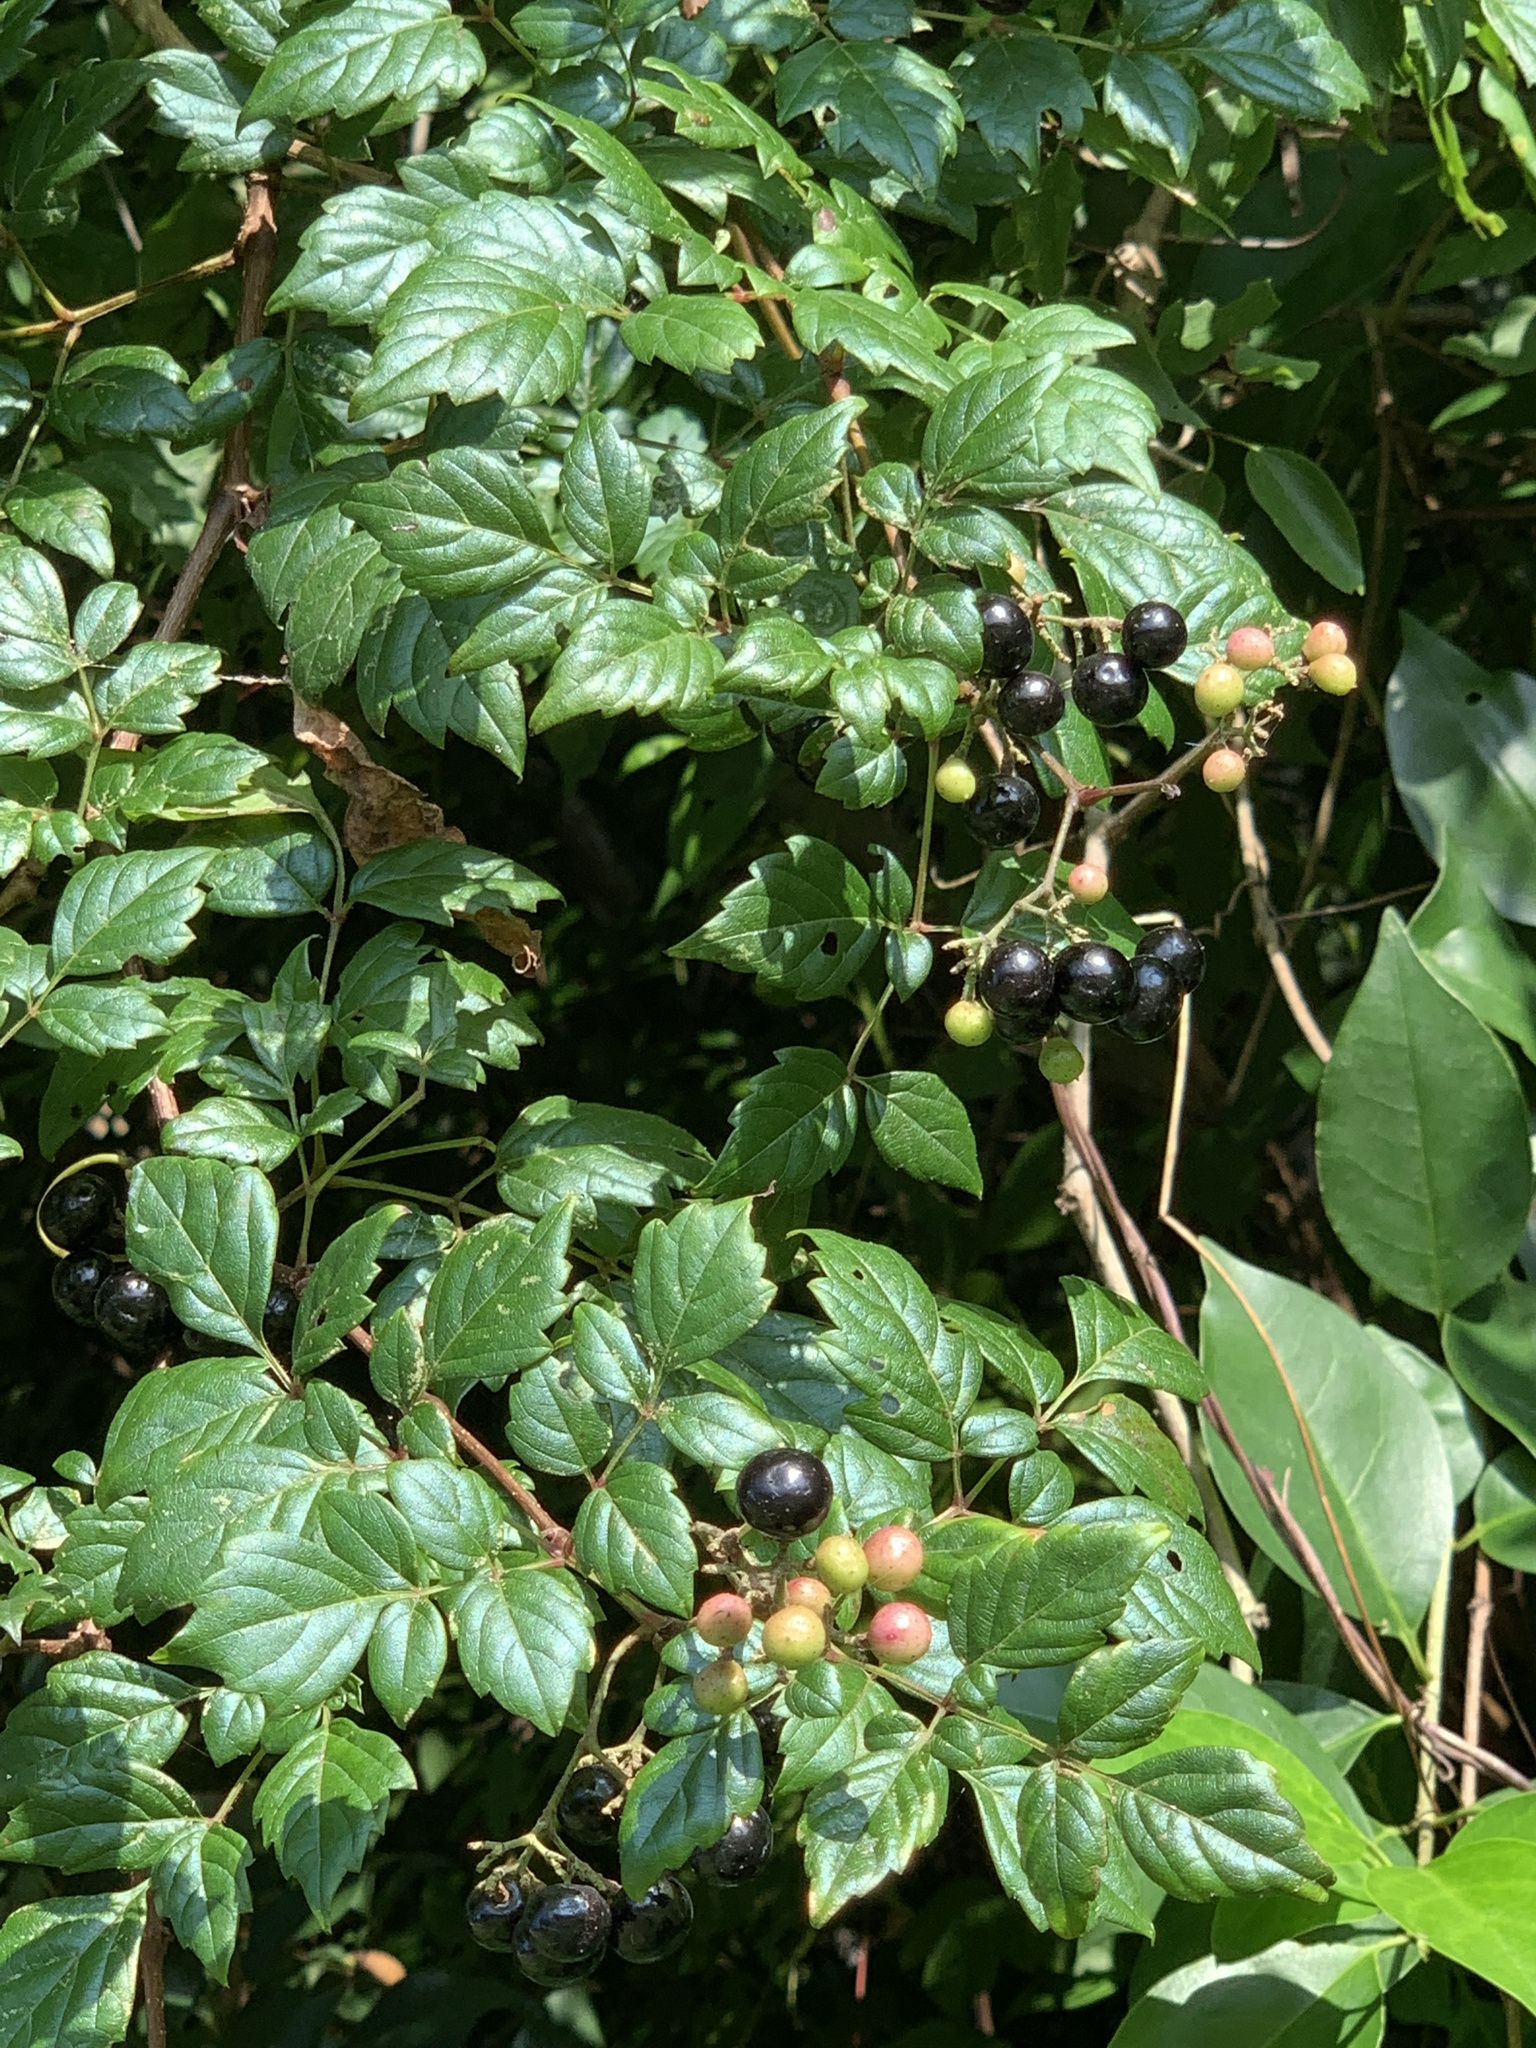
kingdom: Plantae
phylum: Tracheophyta
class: Magnoliopsida
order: Vitales
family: Vitaceae
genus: Nekemias
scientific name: Nekemias arborea
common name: Peppervine
